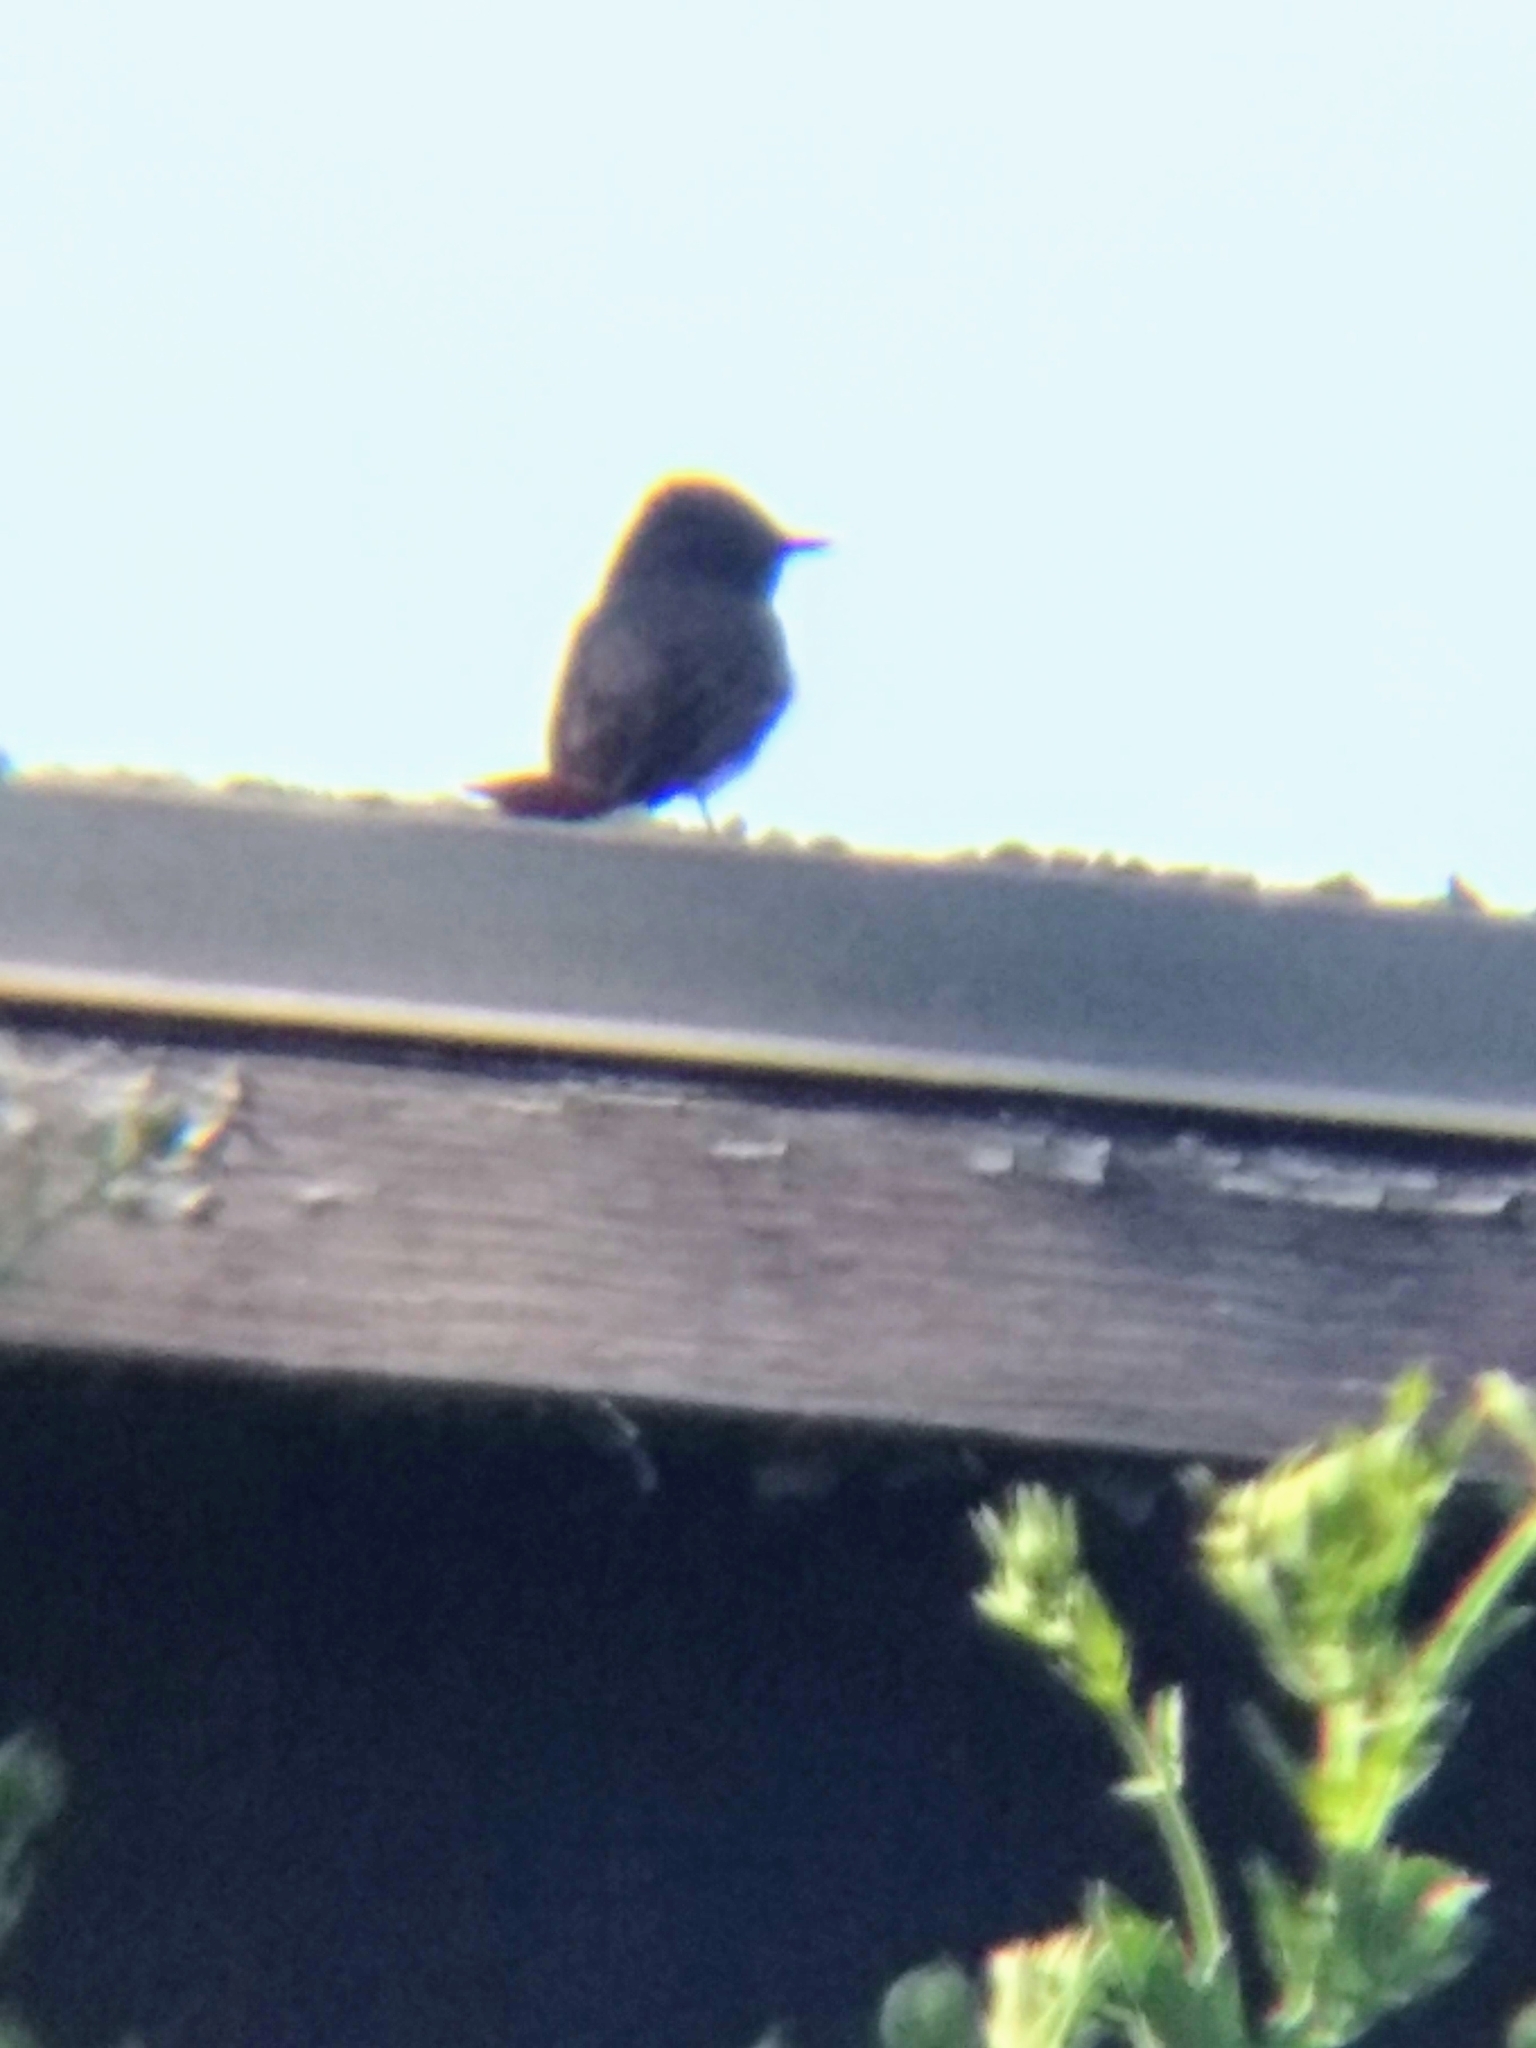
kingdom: Animalia
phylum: Chordata
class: Aves
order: Passeriformes
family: Tyrannidae
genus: Sayornis
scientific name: Sayornis nigricans
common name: Black phoebe
